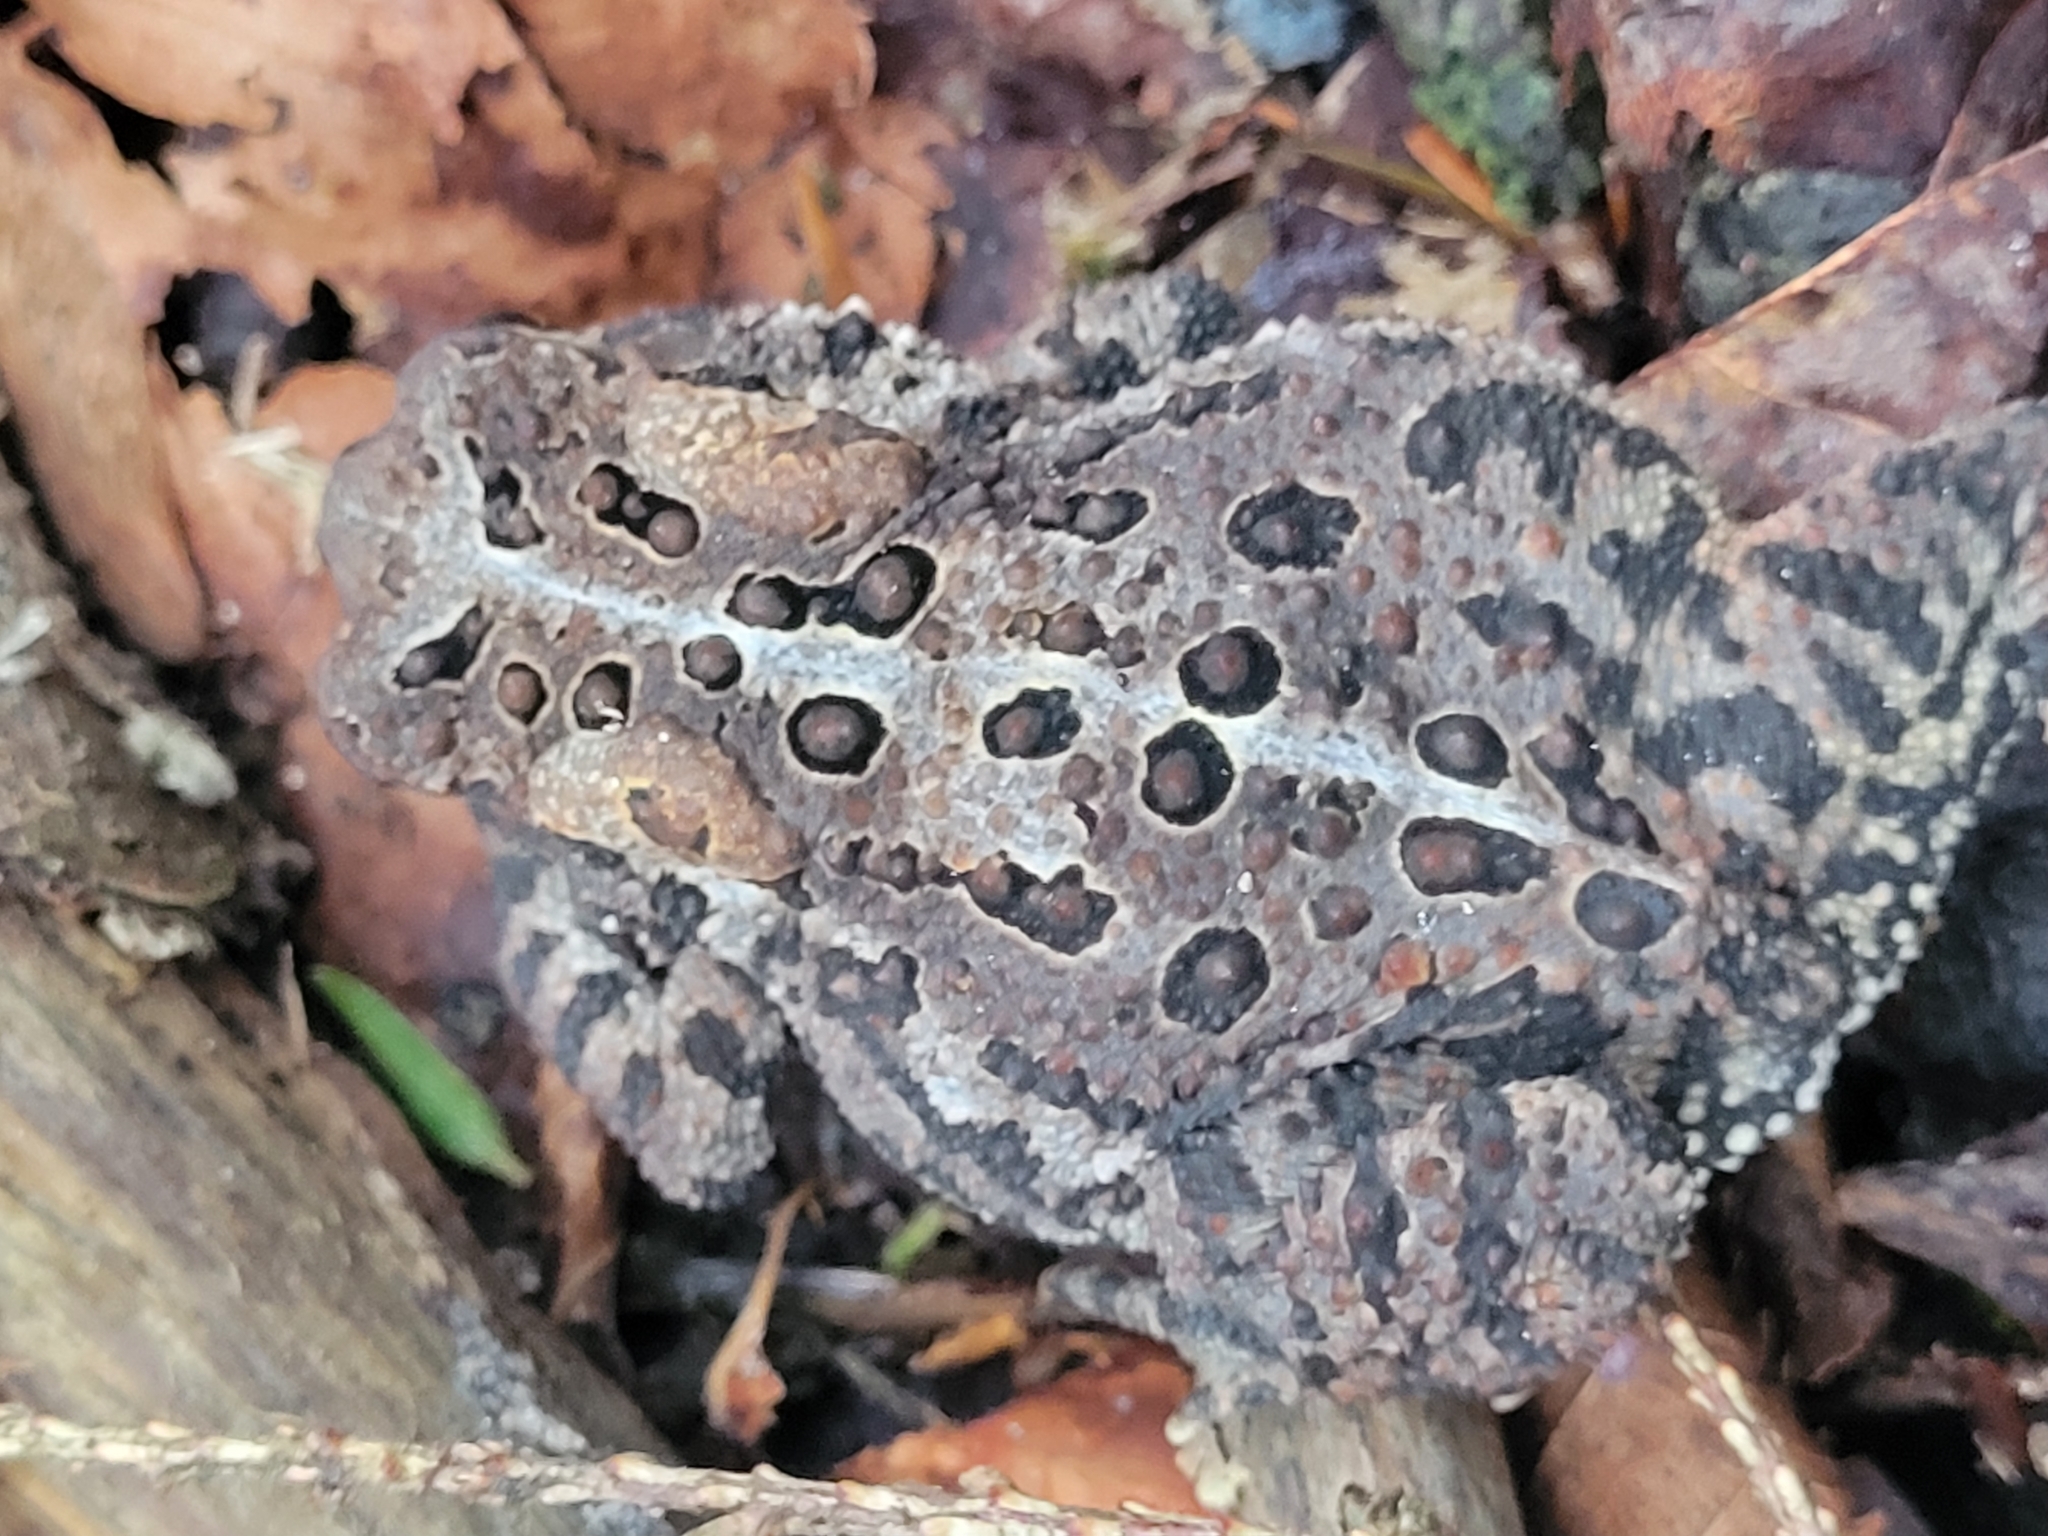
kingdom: Animalia
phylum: Chordata
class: Amphibia
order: Anura
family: Bufonidae
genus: Anaxyrus
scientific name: Anaxyrus americanus
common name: American toad
